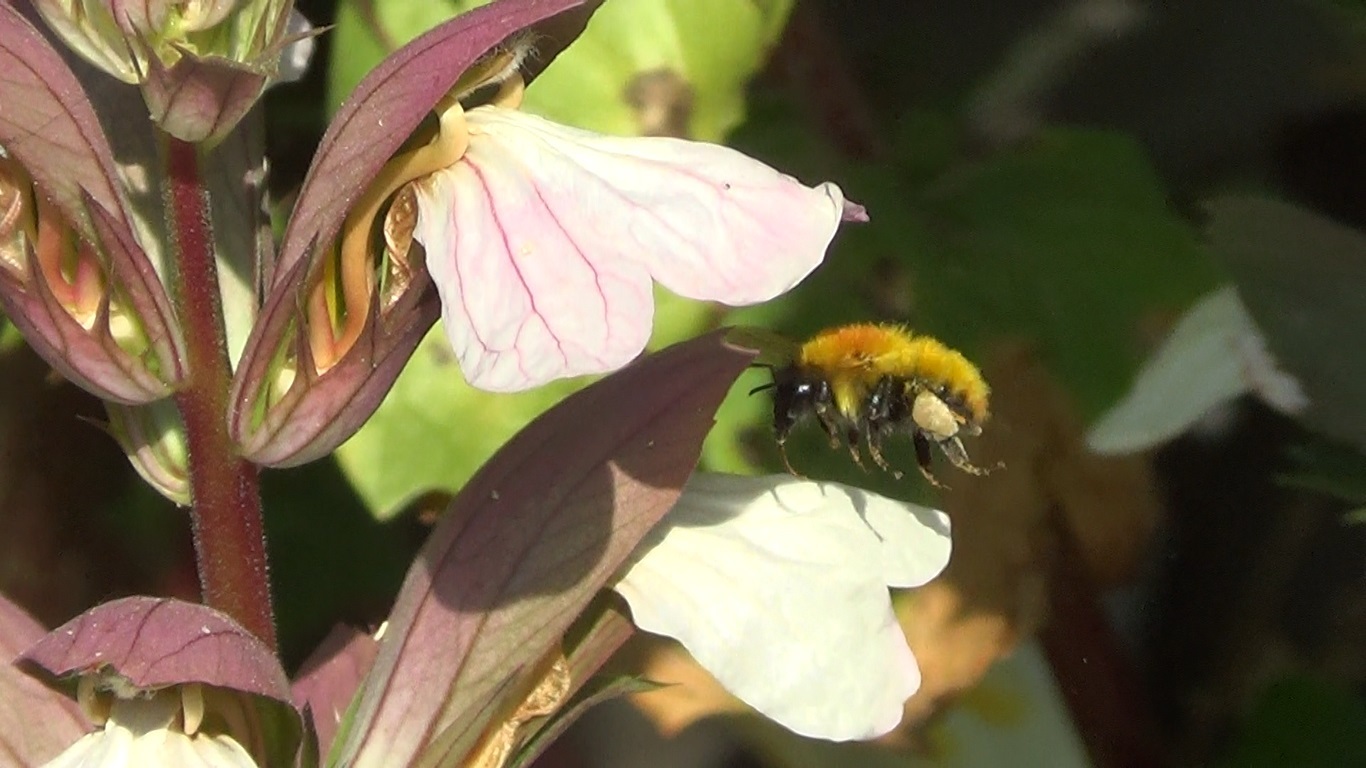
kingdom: Animalia
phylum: Arthropoda
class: Insecta
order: Hymenoptera
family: Apidae
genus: Bombus
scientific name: Bombus pascuorum
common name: Common carder bee
